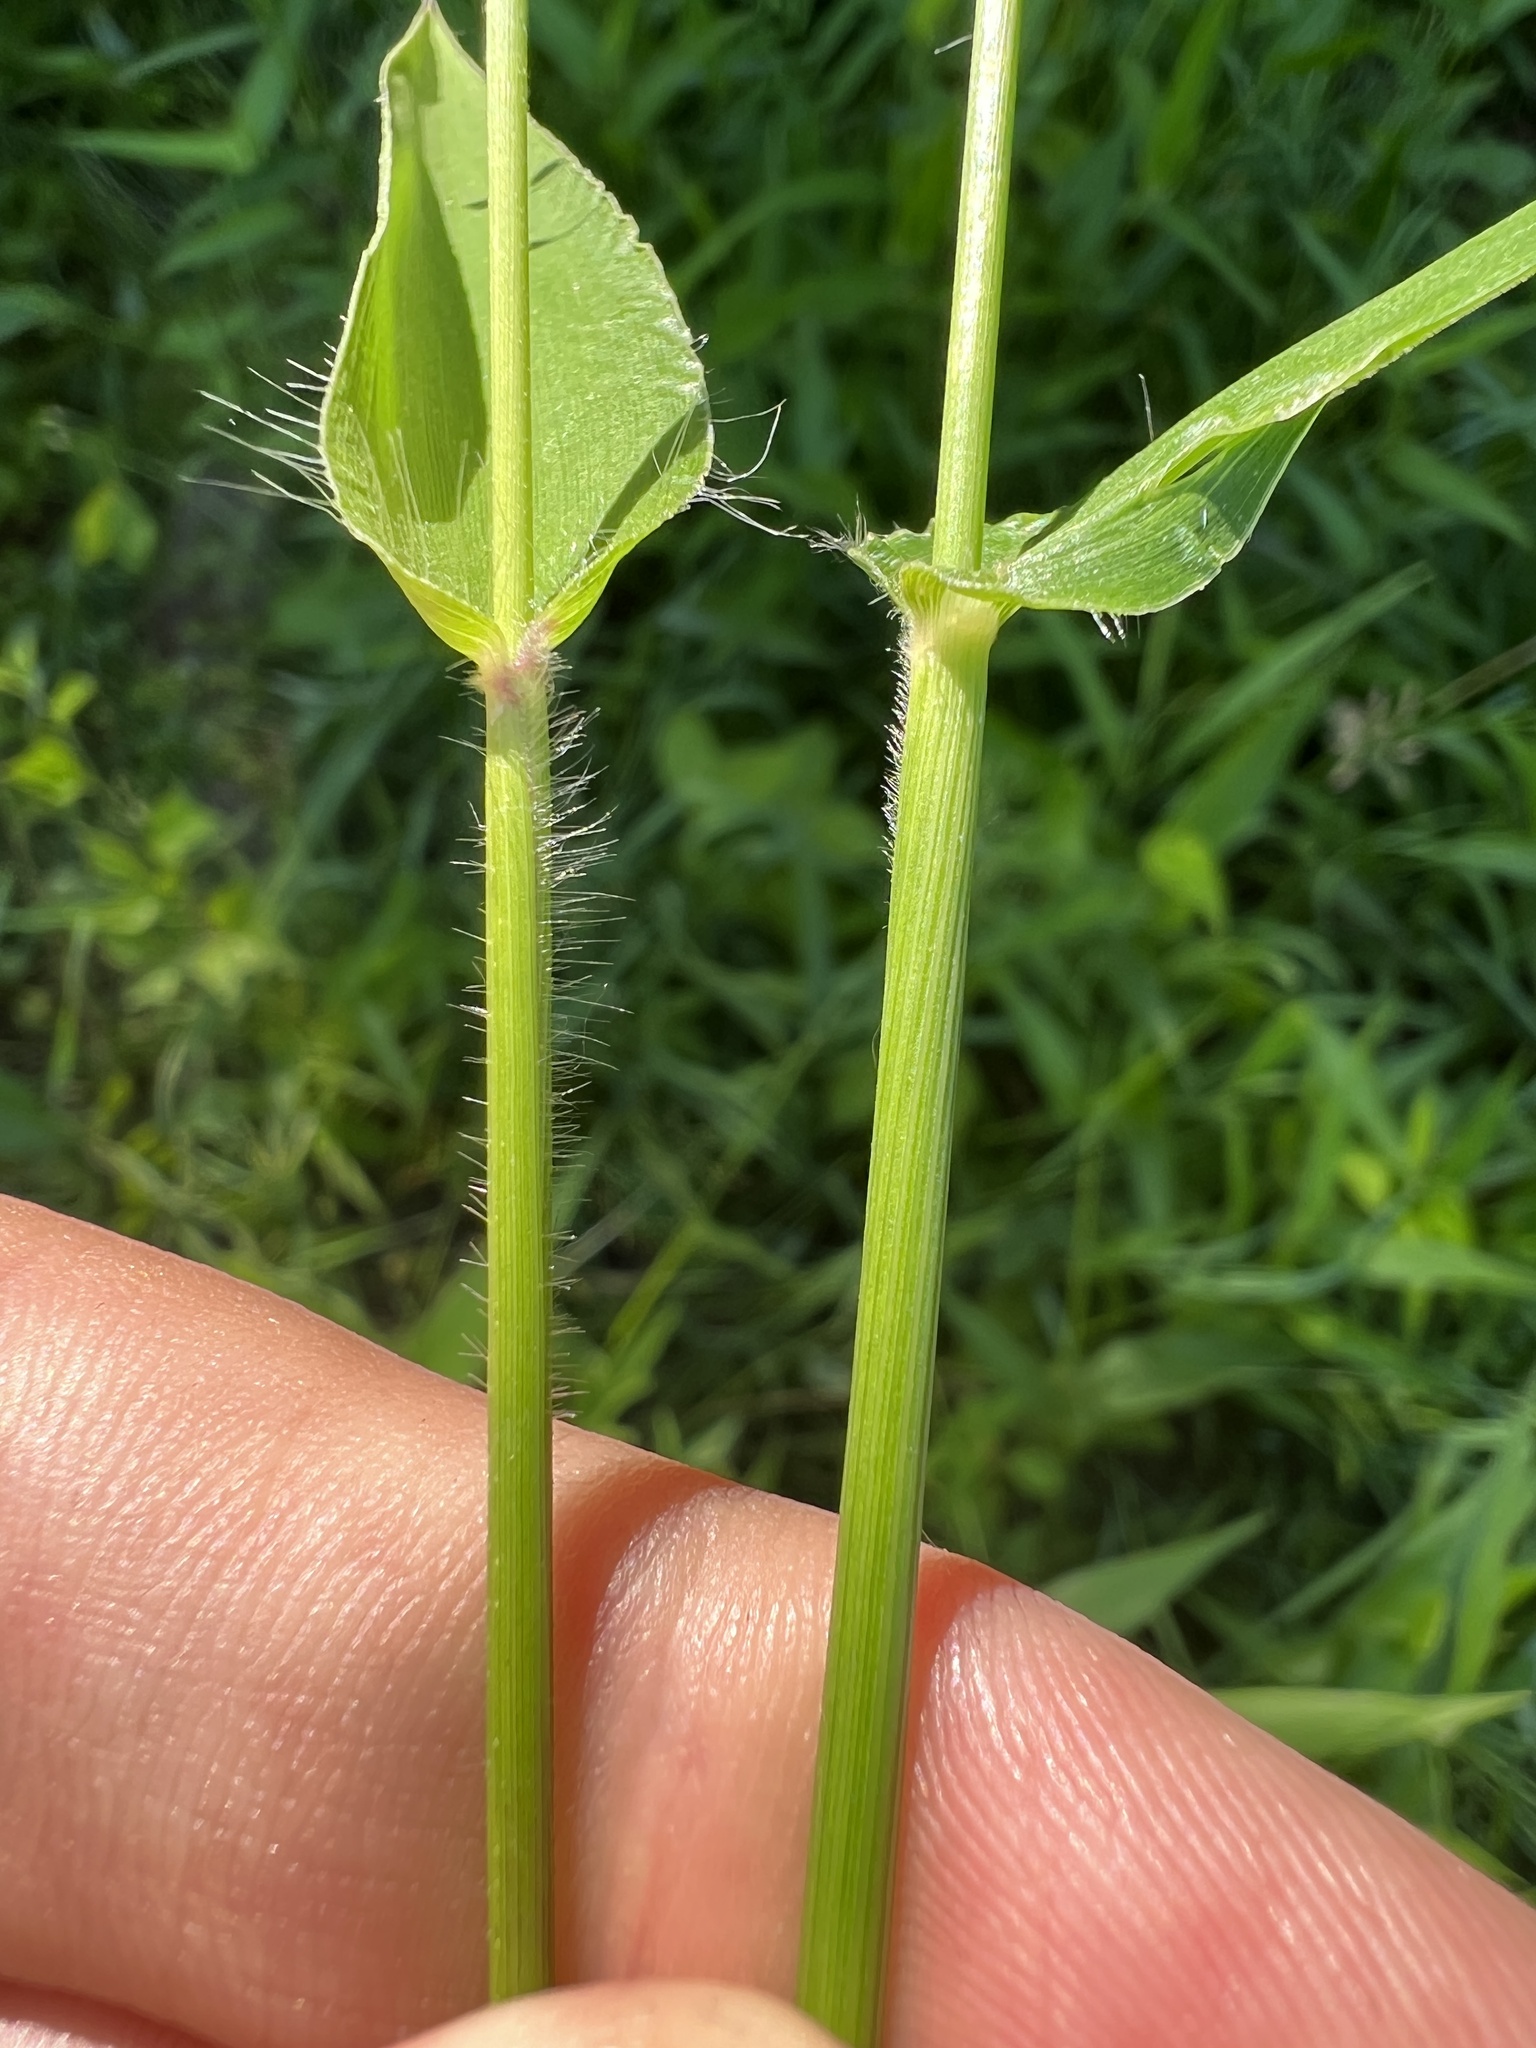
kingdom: Plantae
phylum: Tracheophyta
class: Liliopsida
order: Poales
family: Poaceae
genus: Dichanthelium
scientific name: Dichanthelium clandestinum
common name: Deer-tongue grass
